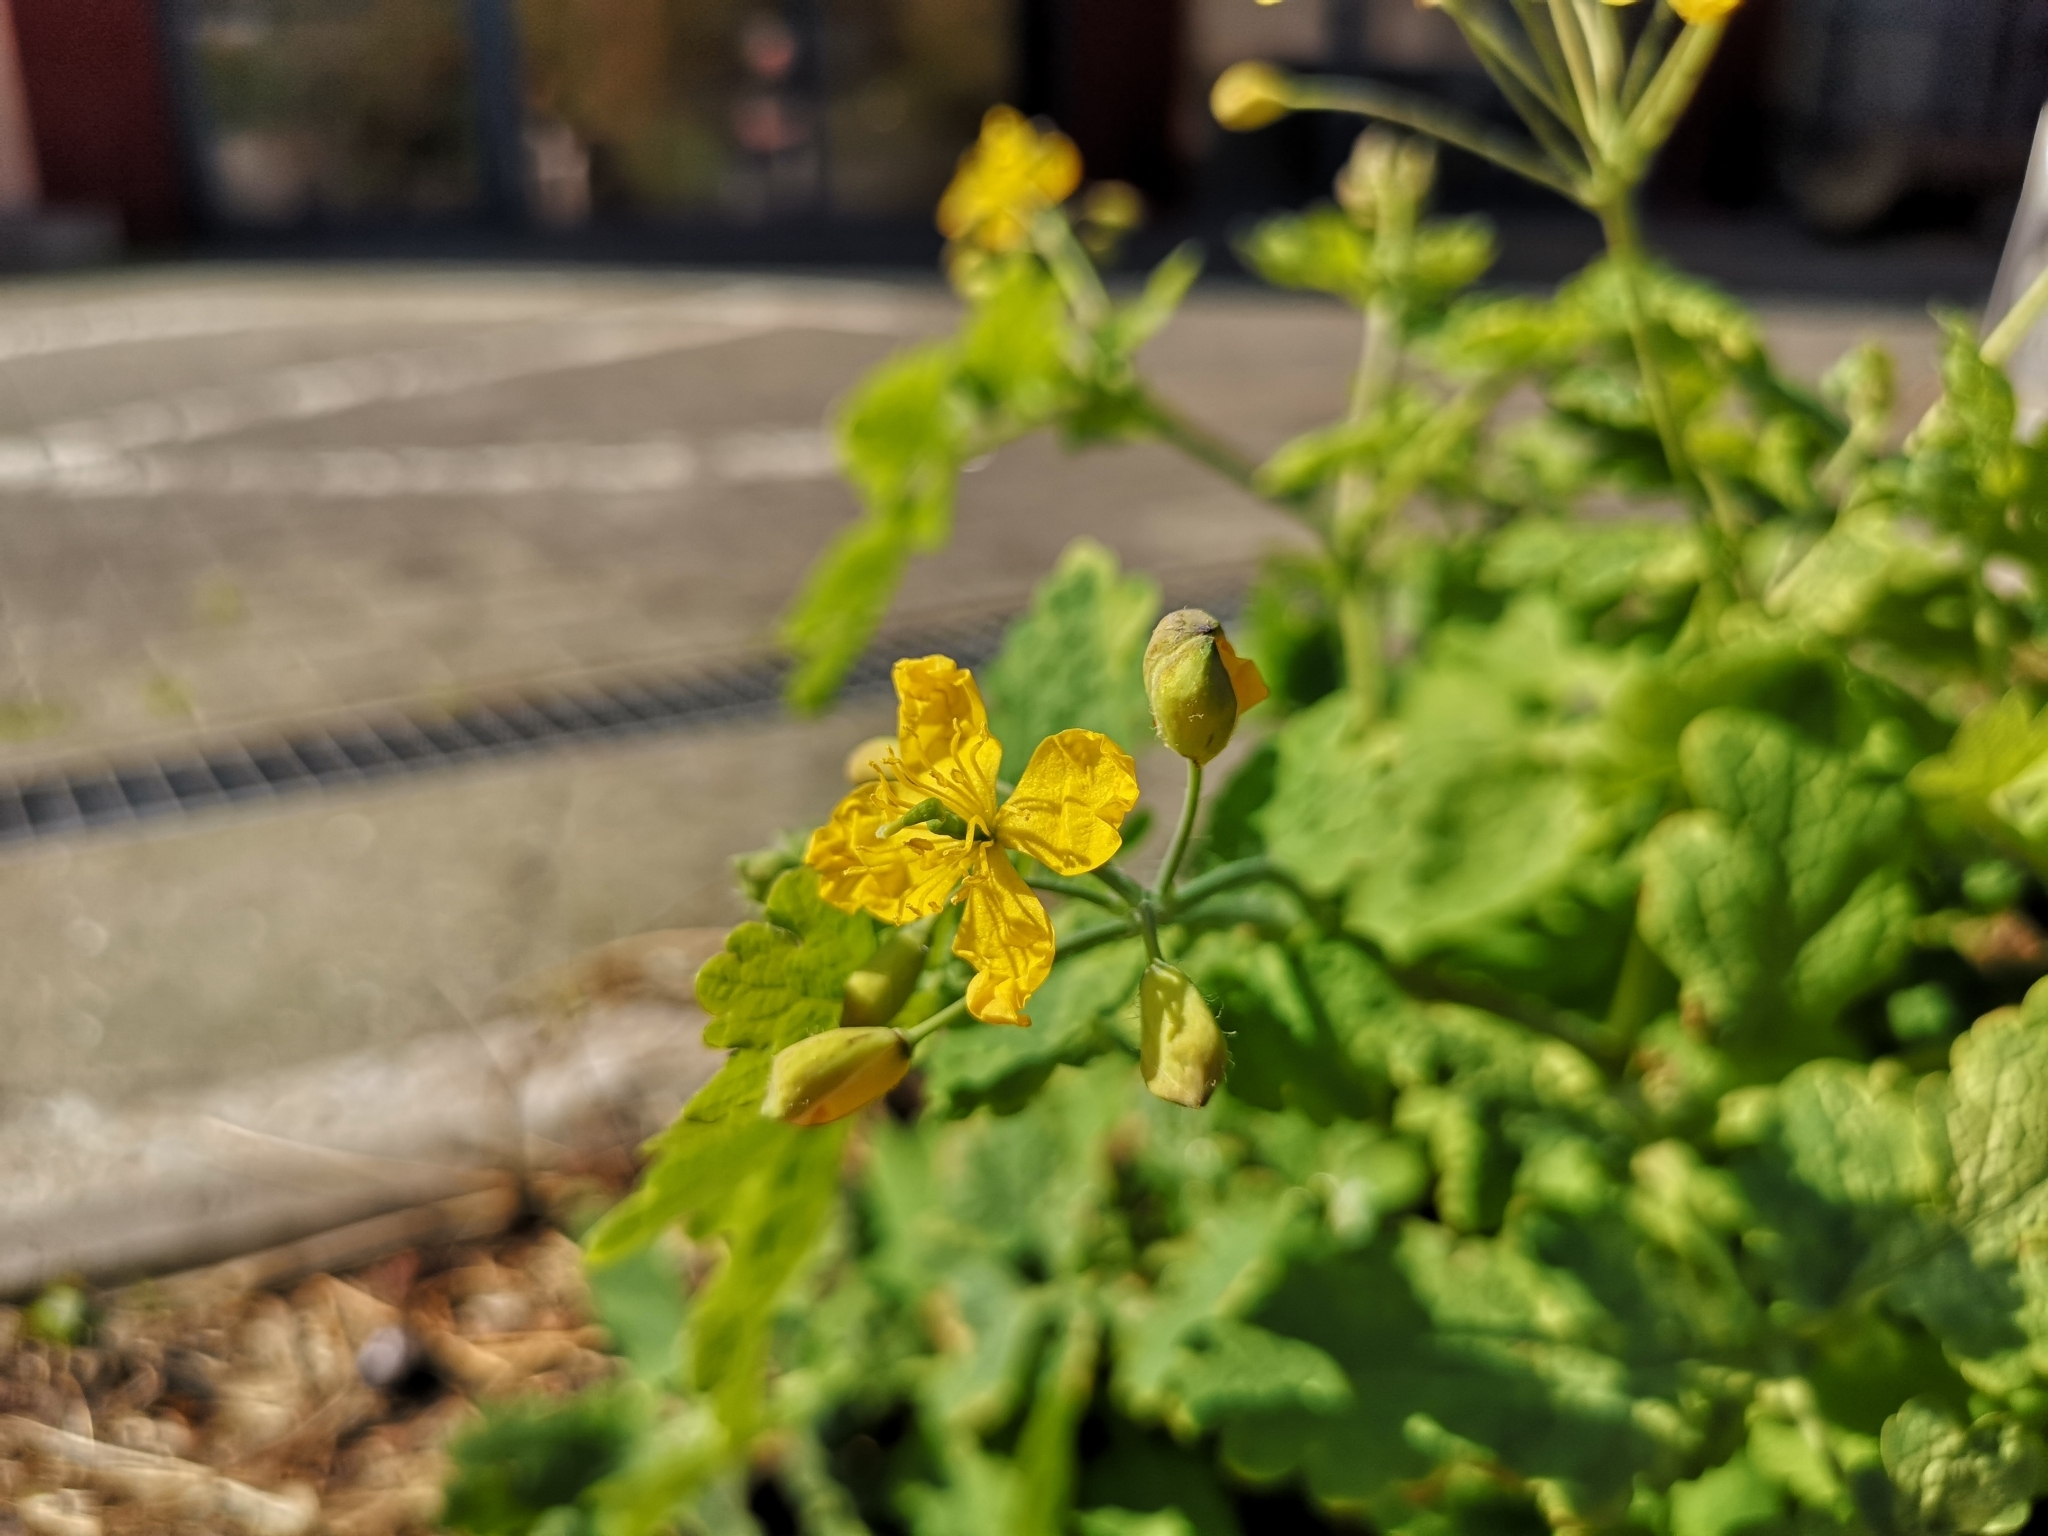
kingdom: Plantae
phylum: Tracheophyta
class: Magnoliopsida
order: Ranunculales
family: Papaveraceae
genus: Chelidonium
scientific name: Chelidonium majus
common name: Greater celandine
